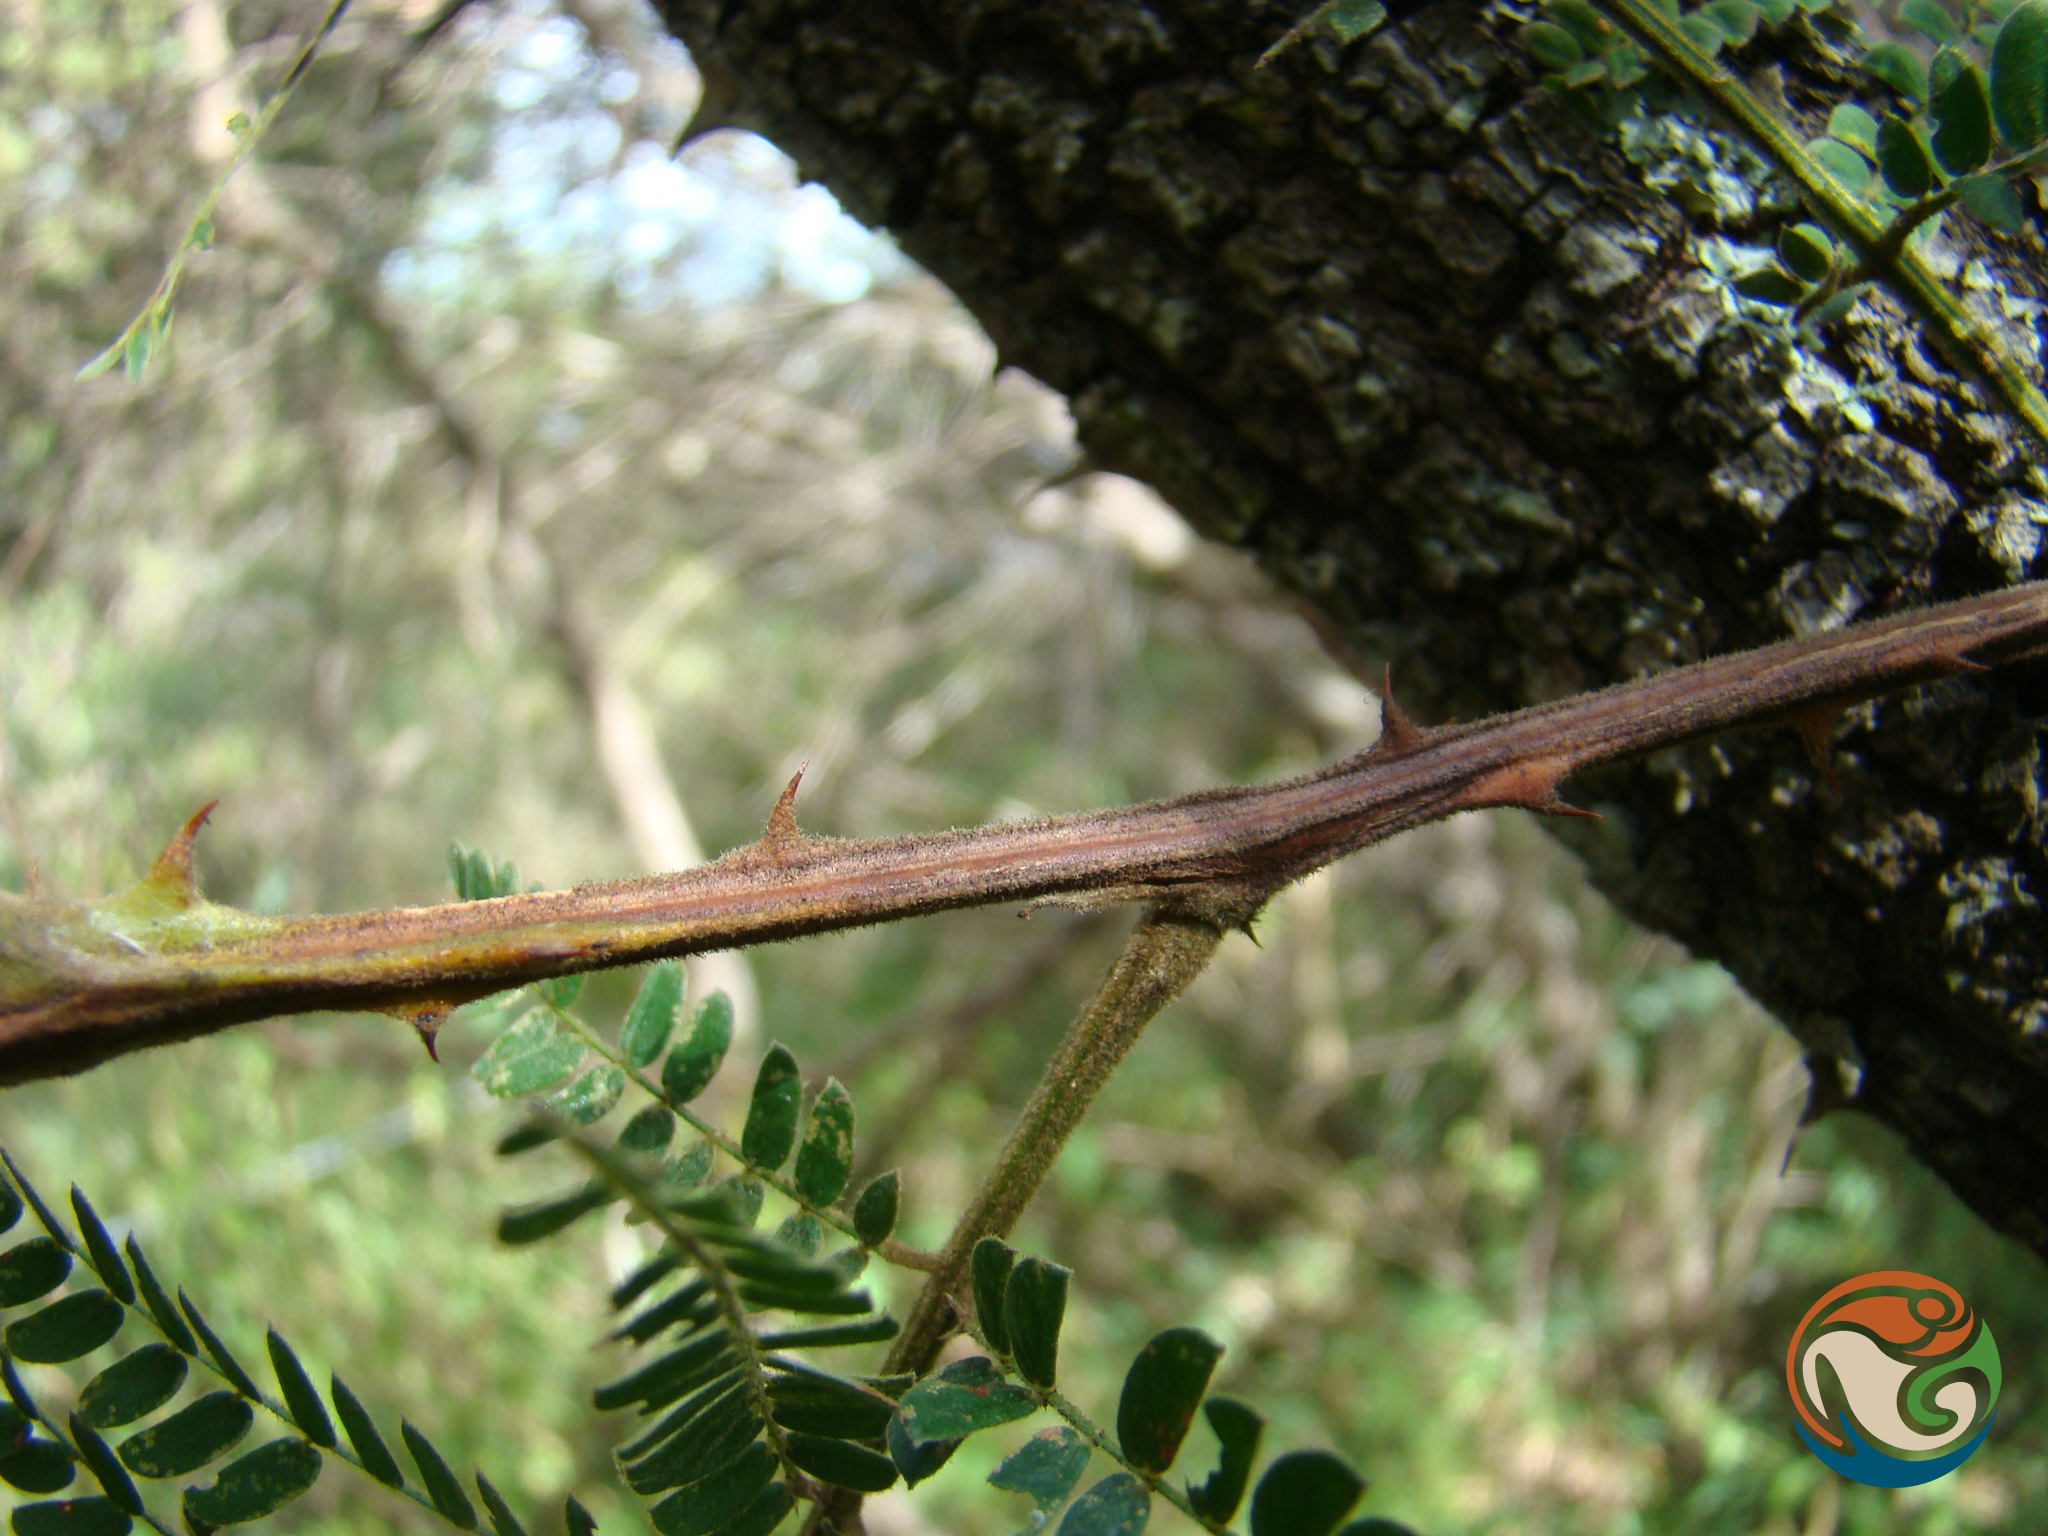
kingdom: Plantae
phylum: Tracheophyta
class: Magnoliopsida
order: Fabales
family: Fabaceae
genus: Senegalia
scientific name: Senegalia subangulata
